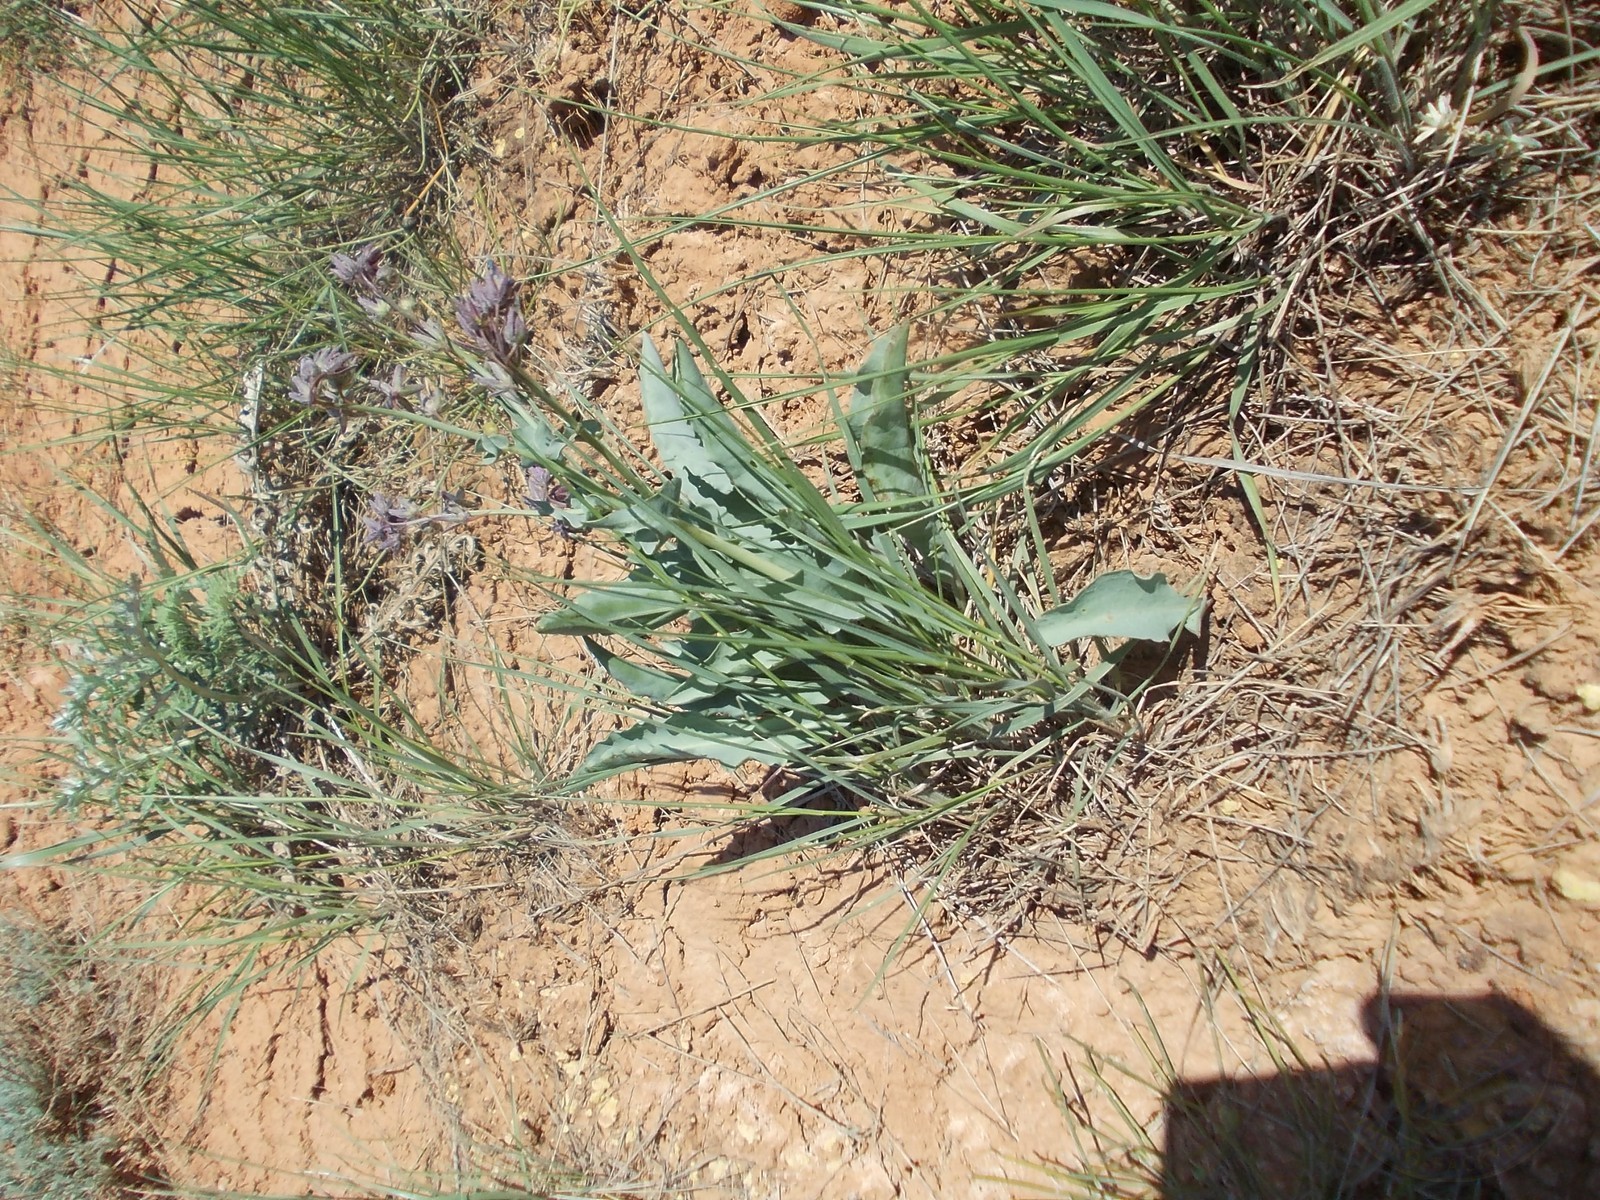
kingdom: Plantae
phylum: Tracheophyta
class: Magnoliopsida
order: Boraginales
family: Boraginaceae
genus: Rindera
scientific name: Rindera tetraspis
